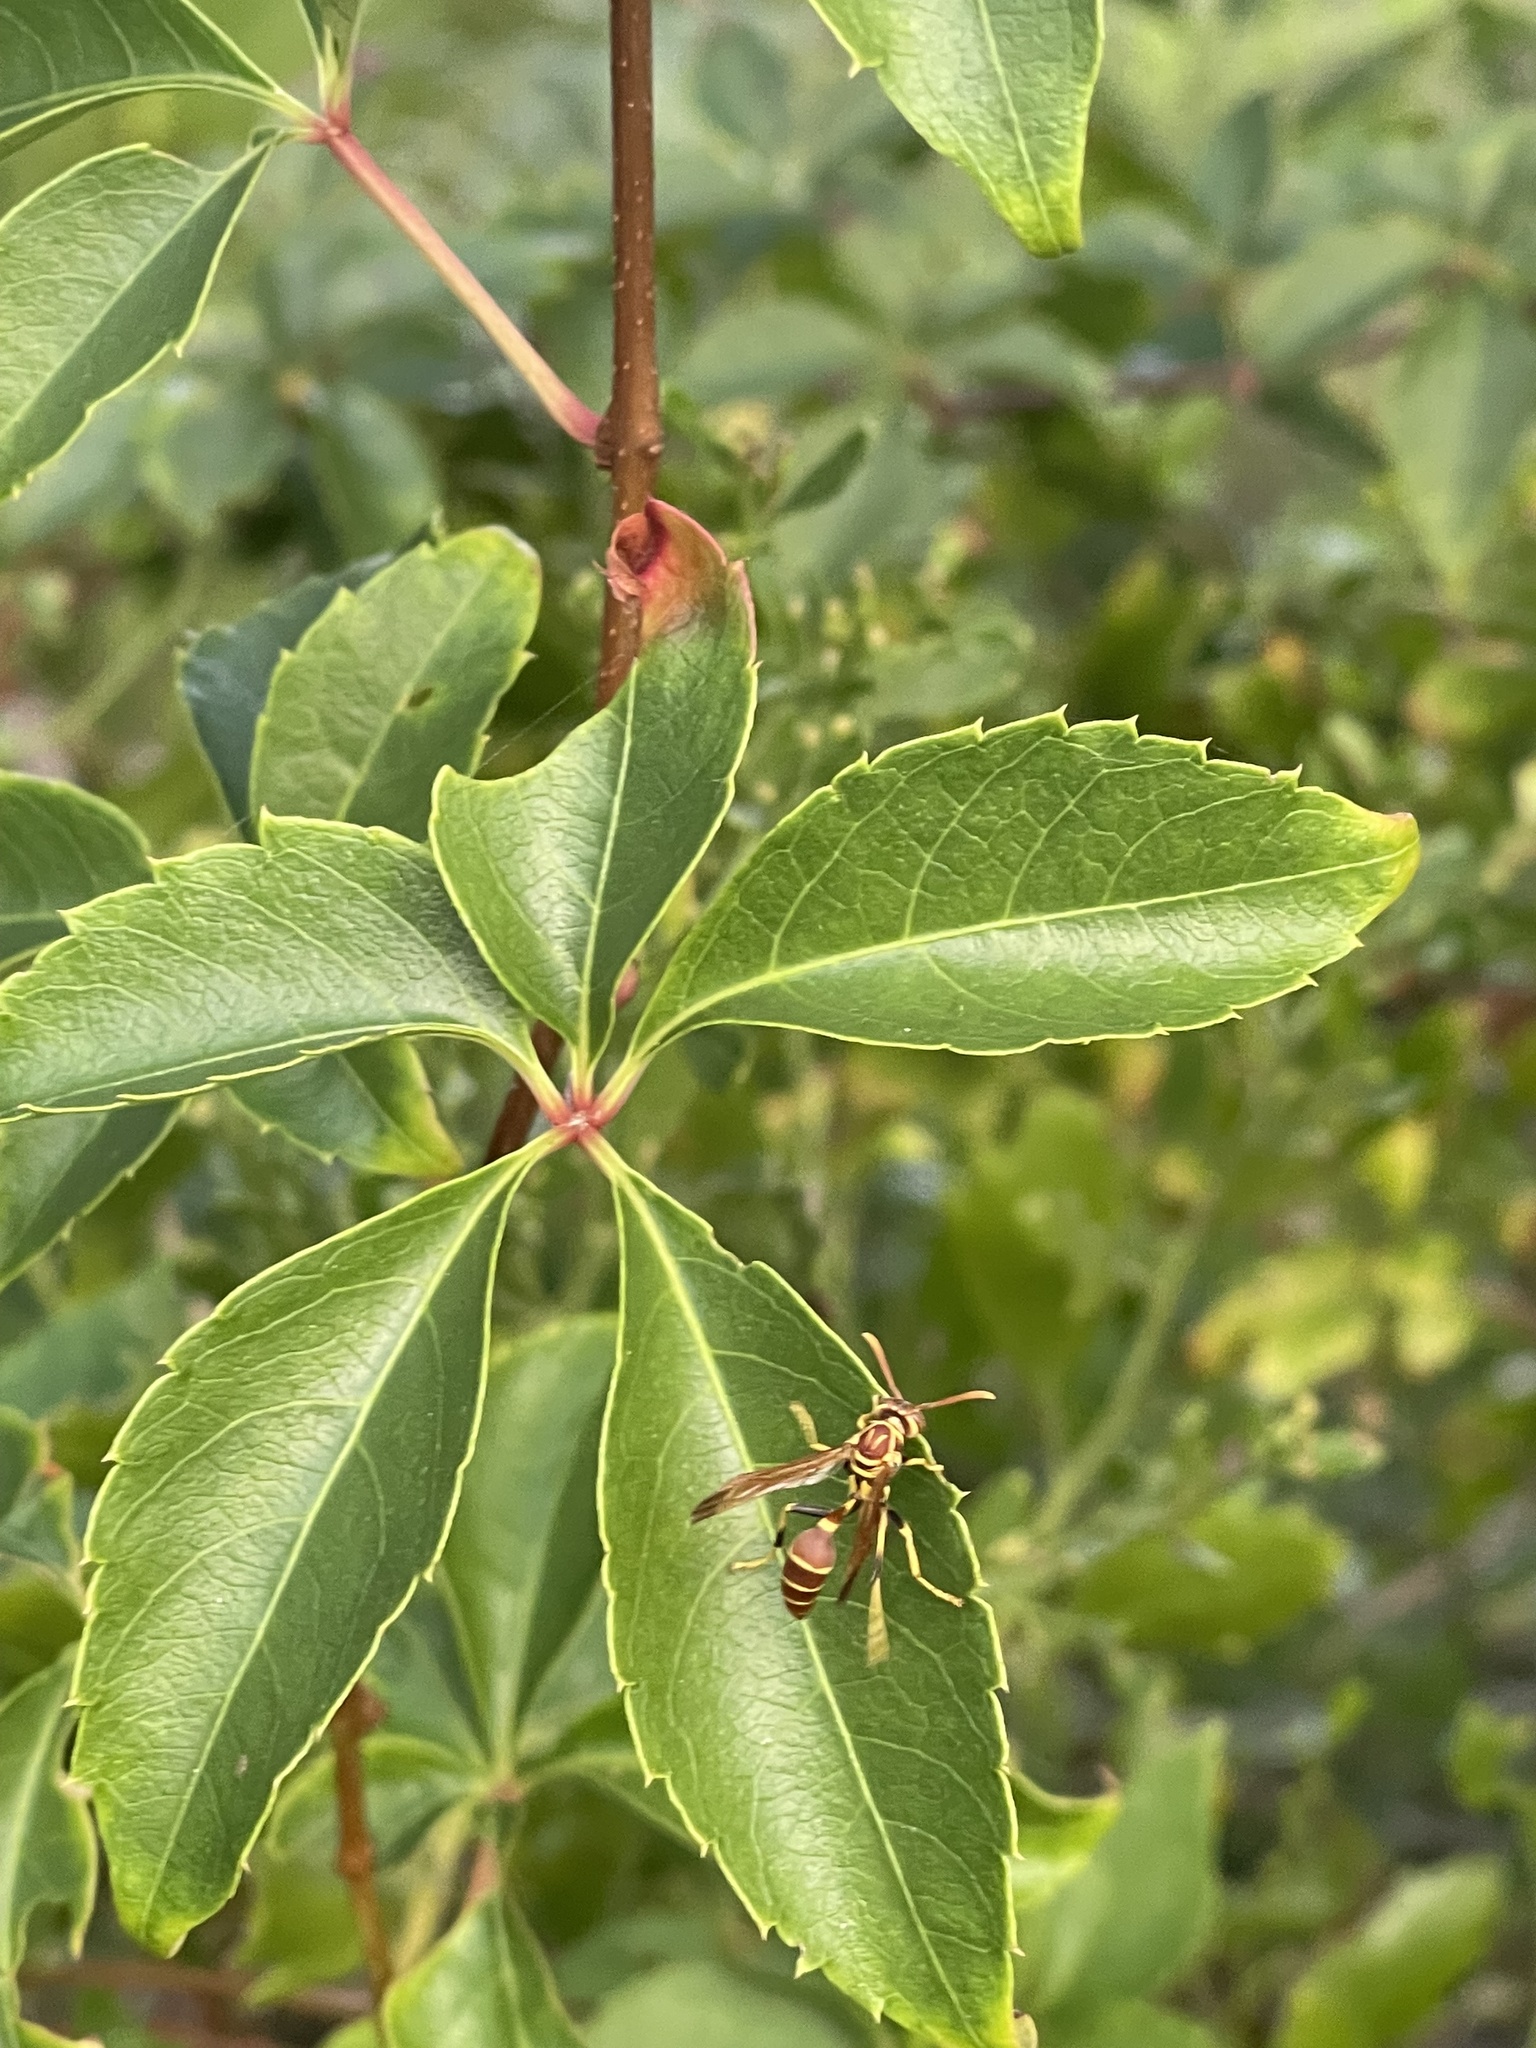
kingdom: Animalia
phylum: Arthropoda
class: Insecta
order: Hymenoptera
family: Vespidae
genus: Mischocyttarus
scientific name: Mischocyttarus mexicanus
